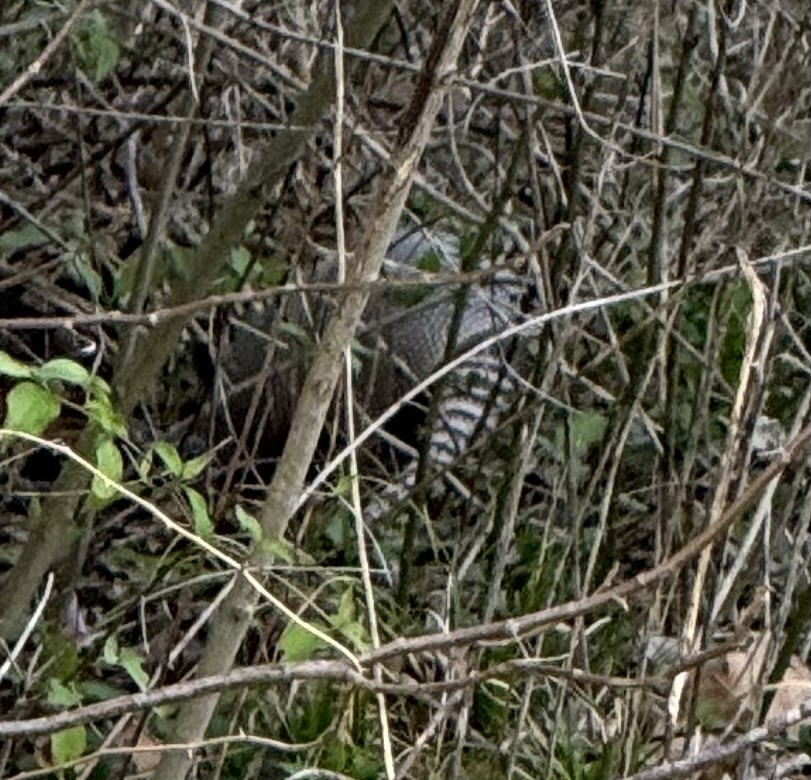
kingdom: Animalia
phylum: Chordata
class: Mammalia
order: Cingulata
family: Dasypodidae
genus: Dasypus
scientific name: Dasypus novemcinctus
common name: Nine-banded armadillo
